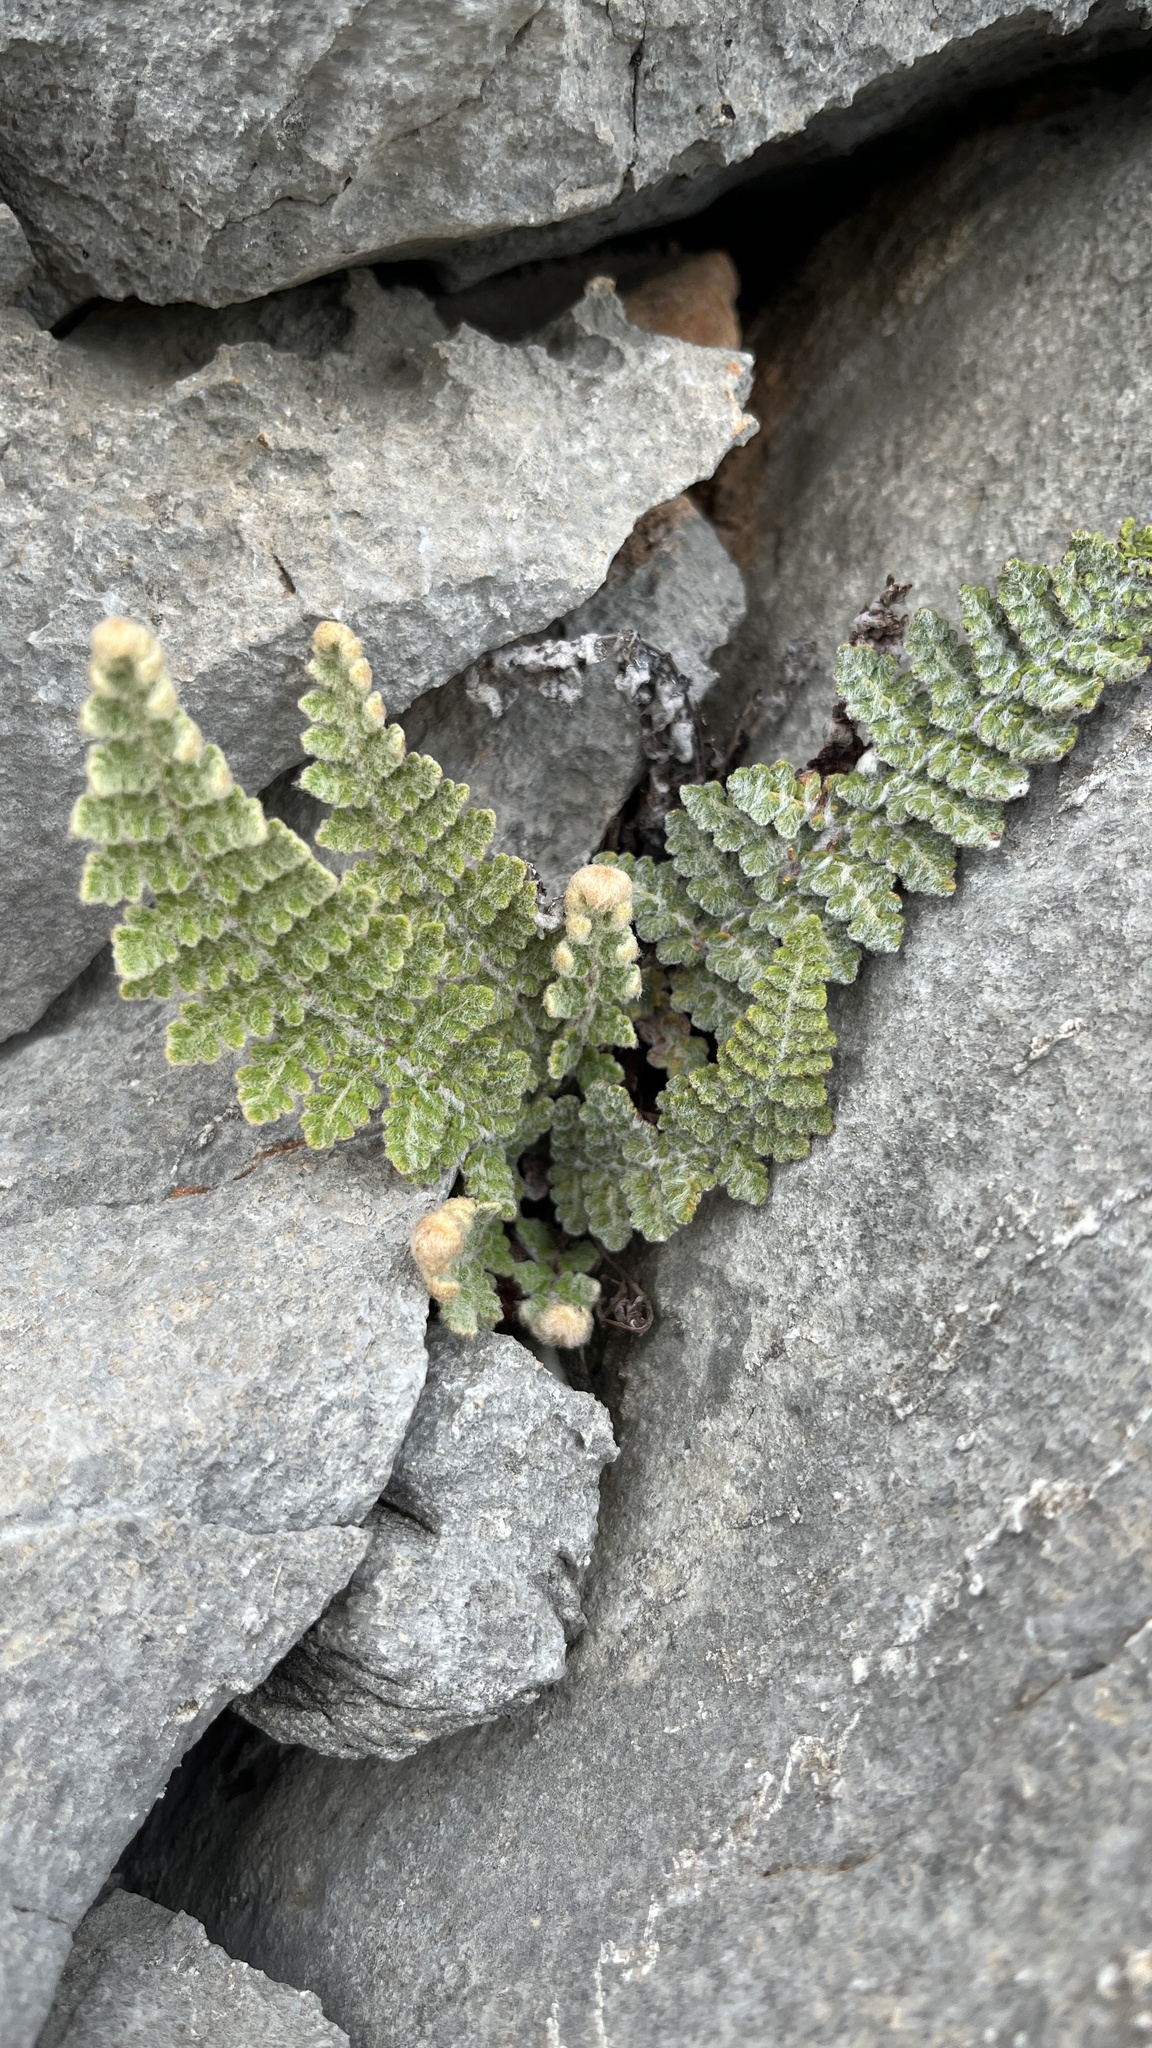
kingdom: Plantae
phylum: Tracheophyta
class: Polypodiopsida
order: Polypodiales
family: Pteridaceae
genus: Cosentinia
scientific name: Cosentinia vellea
